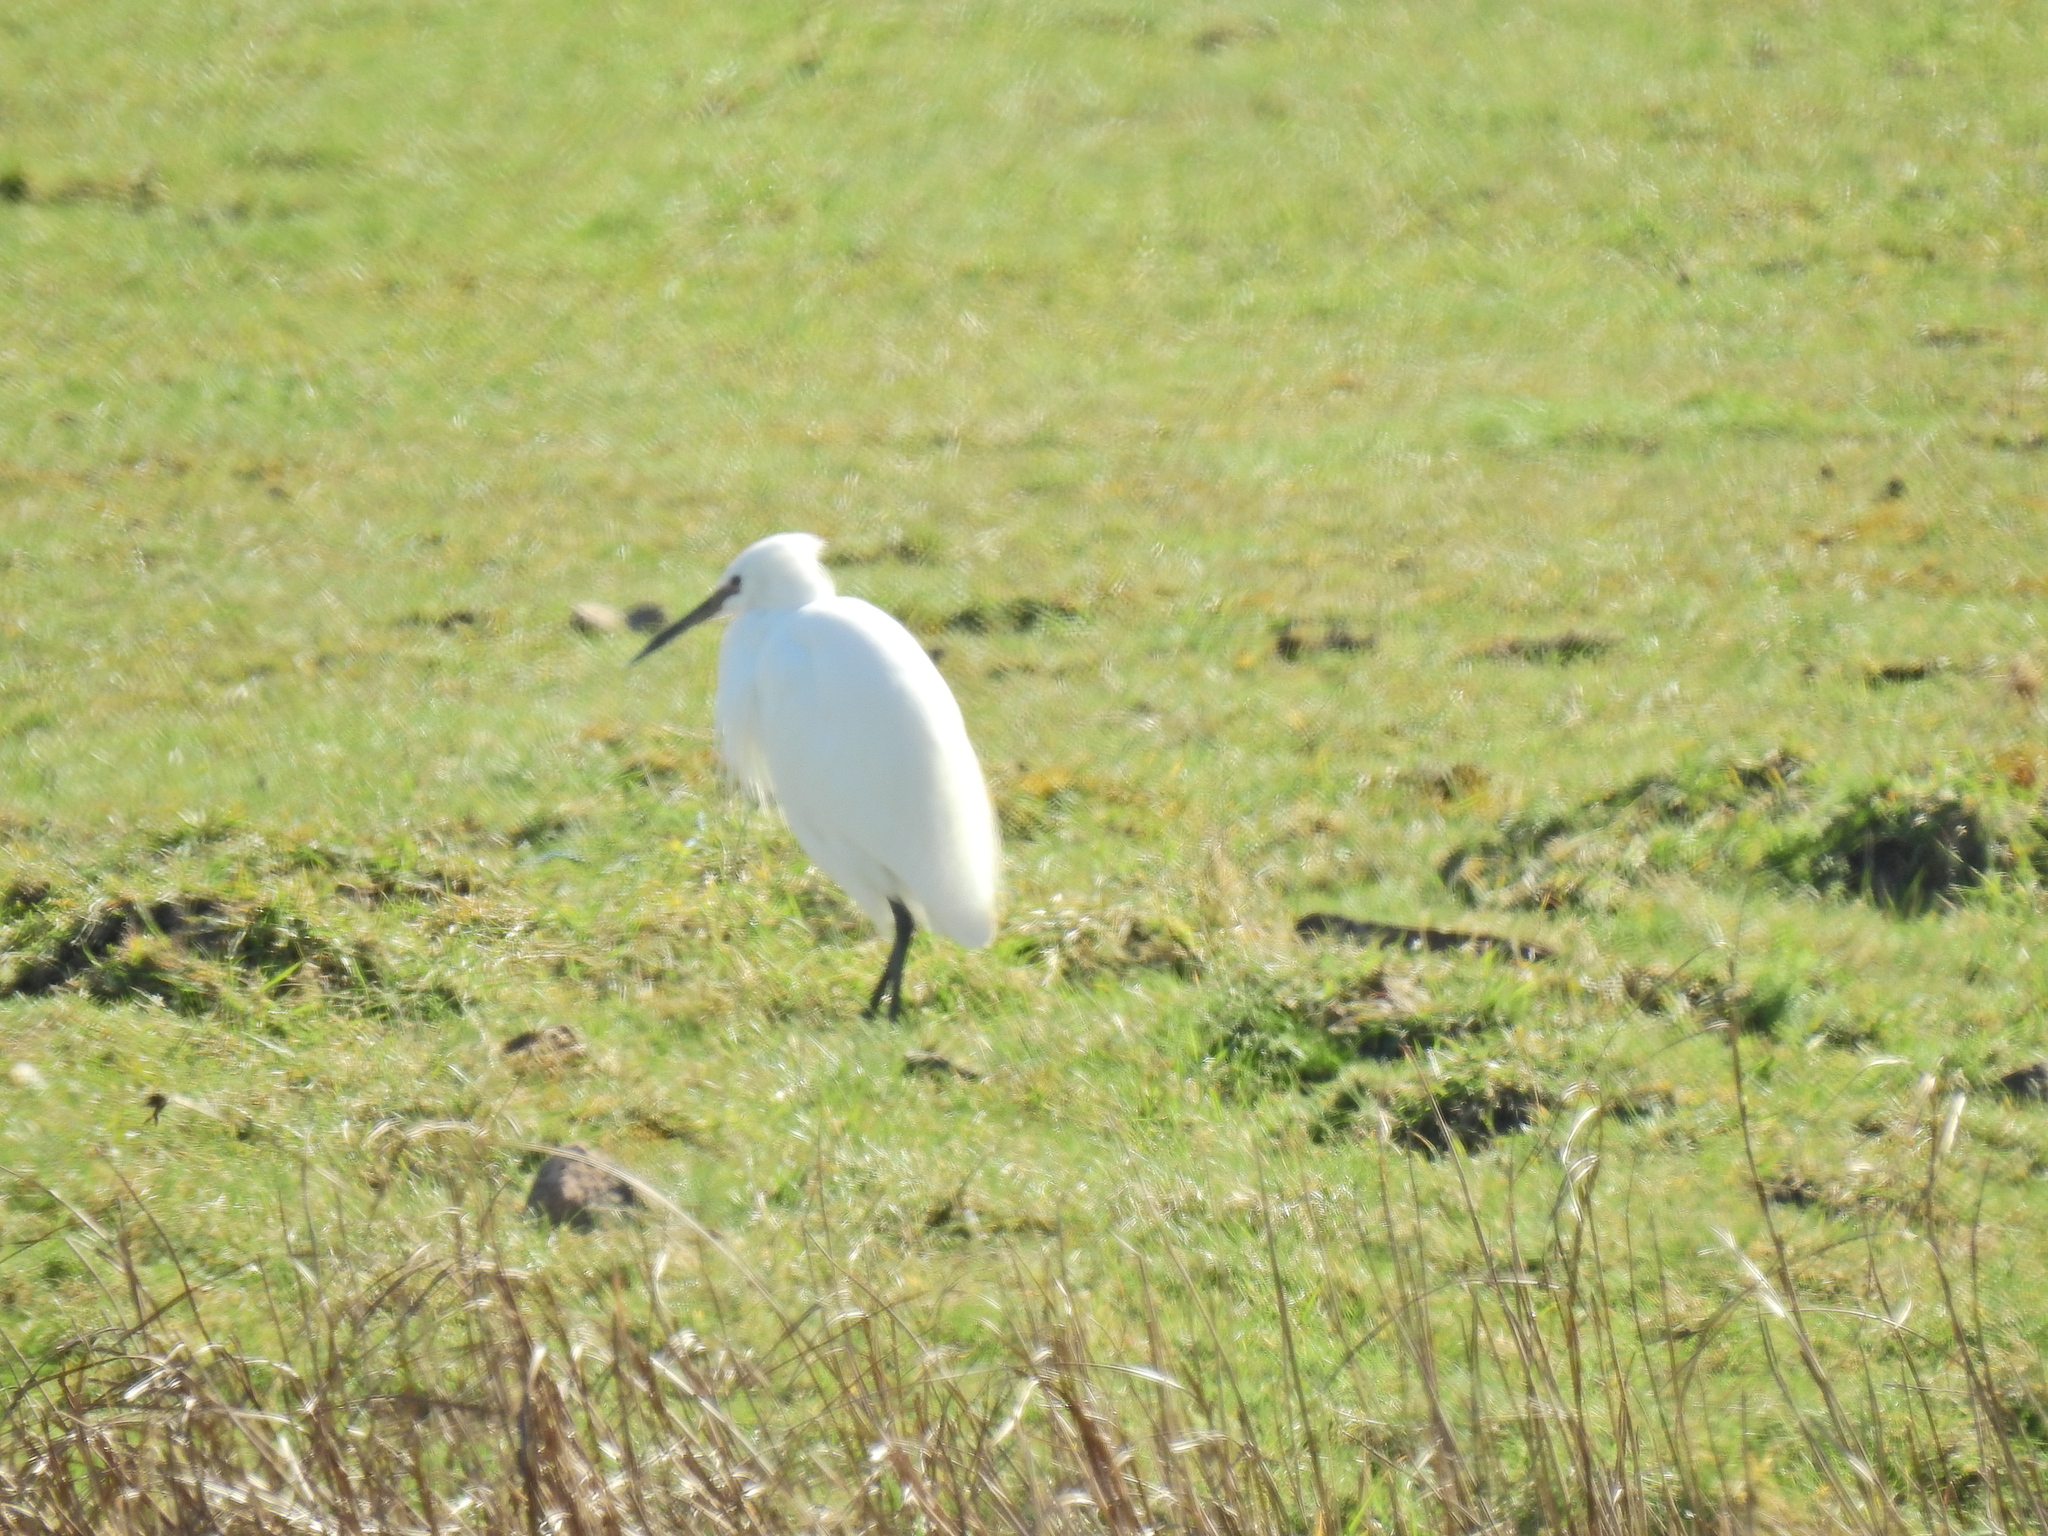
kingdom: Animalia
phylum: Chordata
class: Aves
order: Pelecaniformes
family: Ardeidae
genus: Egretta
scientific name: Egretta garzetta
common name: Little egret
